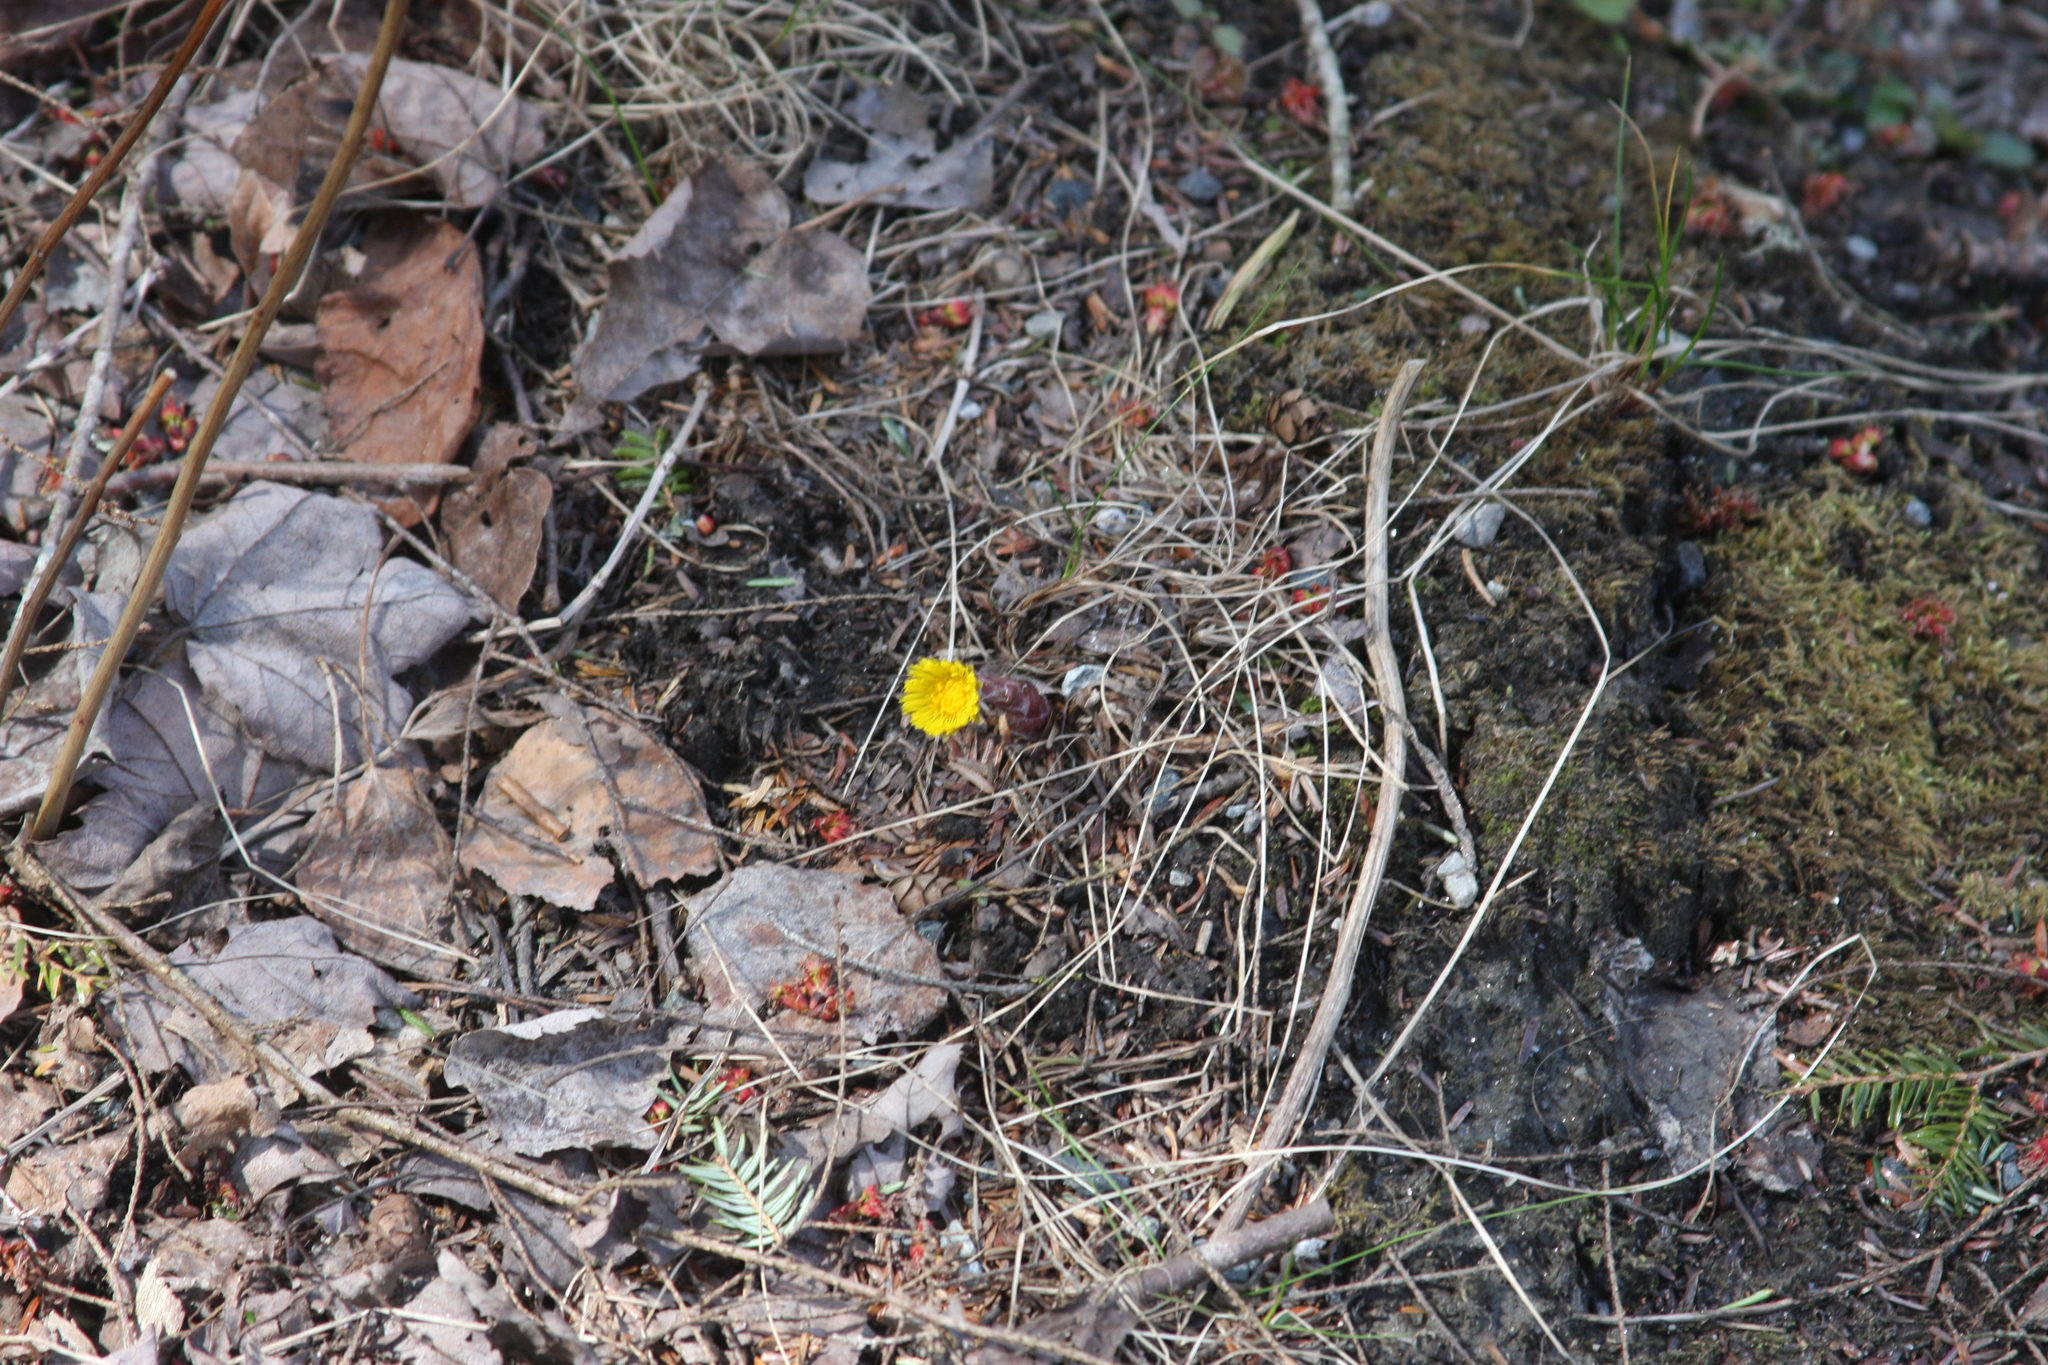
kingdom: Plantae
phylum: Tracheophyta
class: Magnoliopsida
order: Asterales
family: Asteraceae
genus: Tussilago
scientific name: Tussilago farfara
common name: Coltsfoot
